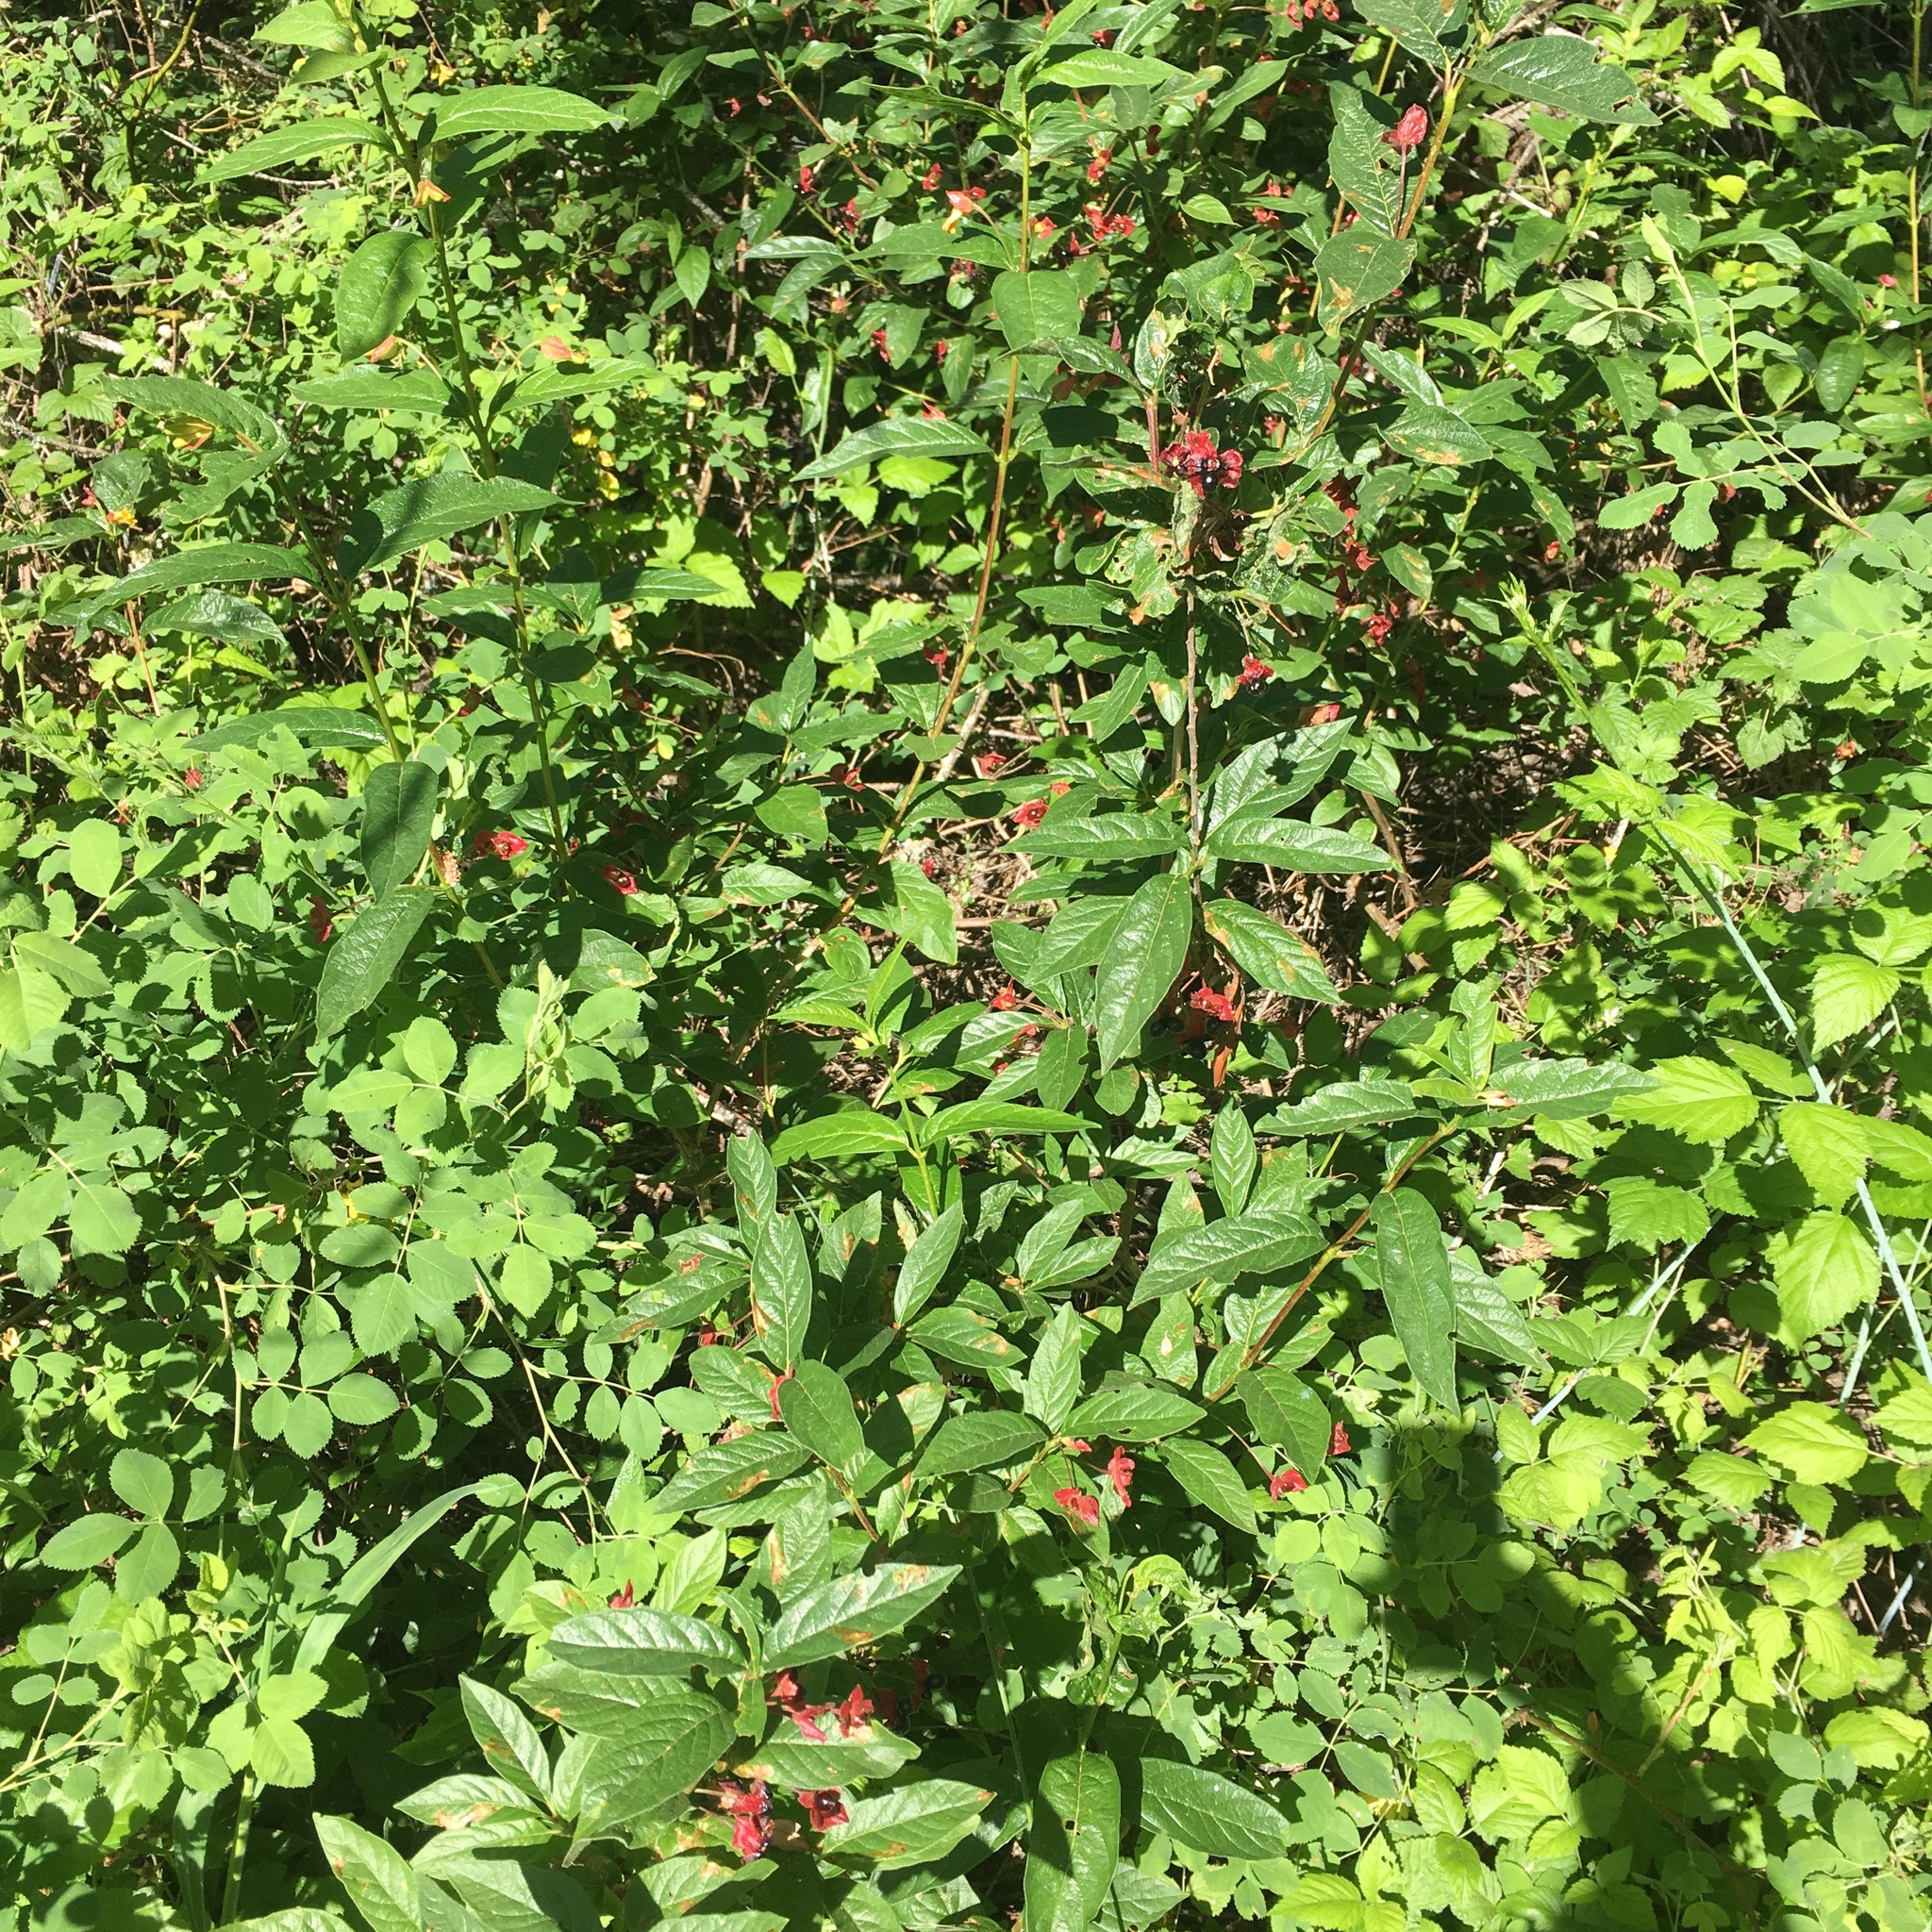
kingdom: Plantae
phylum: Tracheophyta
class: Magnoliopsida
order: Dipsacales
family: Caprifoliaceae
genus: Lonicera
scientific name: Lonicera involucrata
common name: Californian honeysuckle
